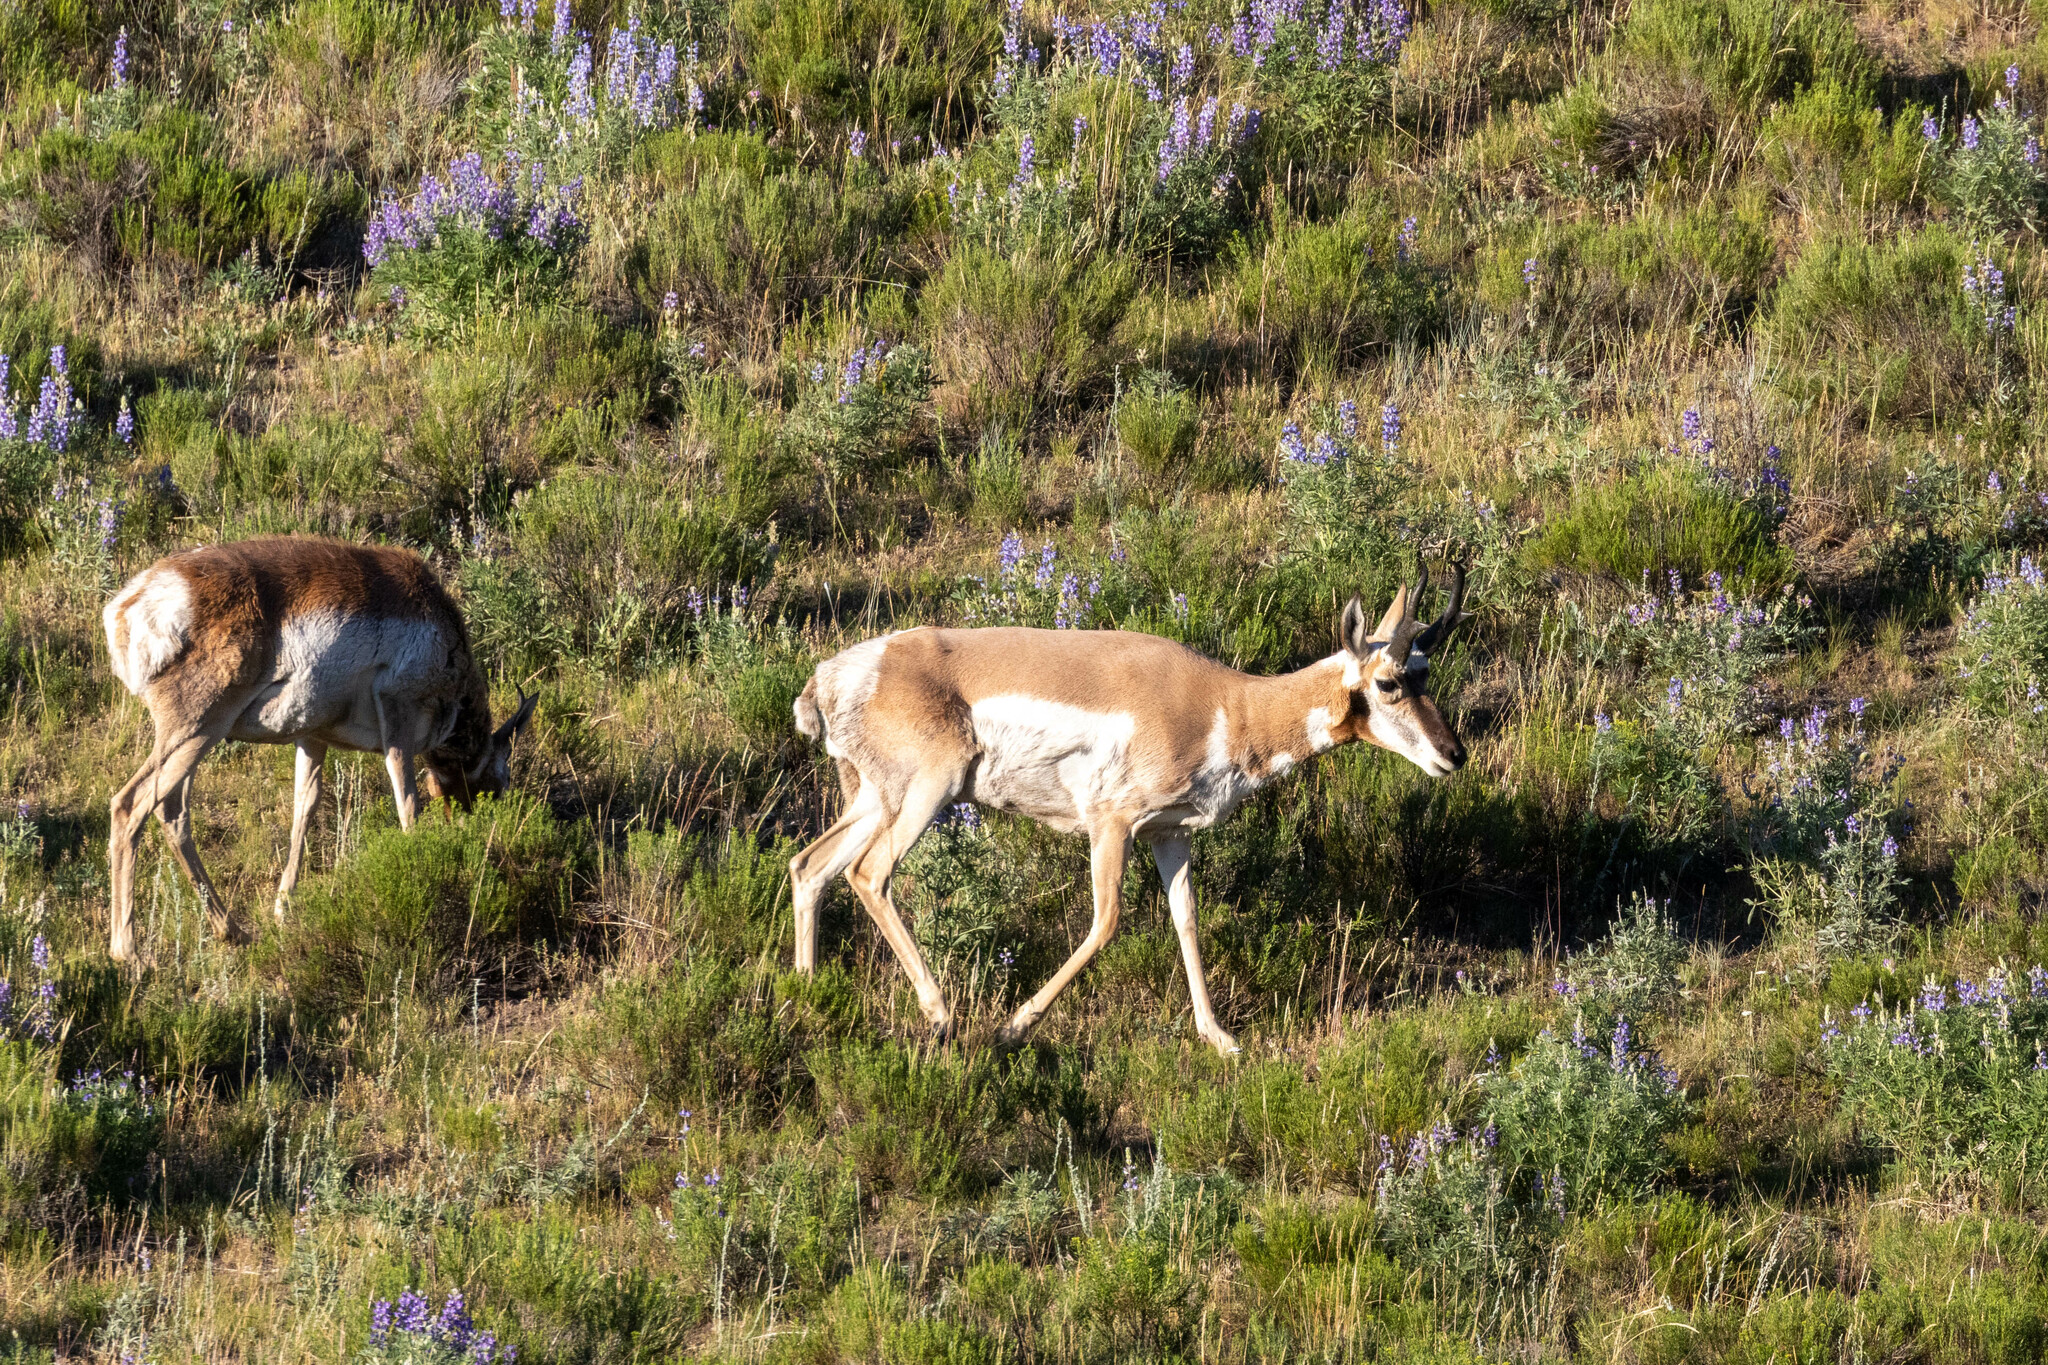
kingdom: Animalia
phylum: Chordata
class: Mammalia
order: Artiodactyla
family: Antilocapridae
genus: Antilocapra
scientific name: Antilocapra americana
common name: Pronghorn
